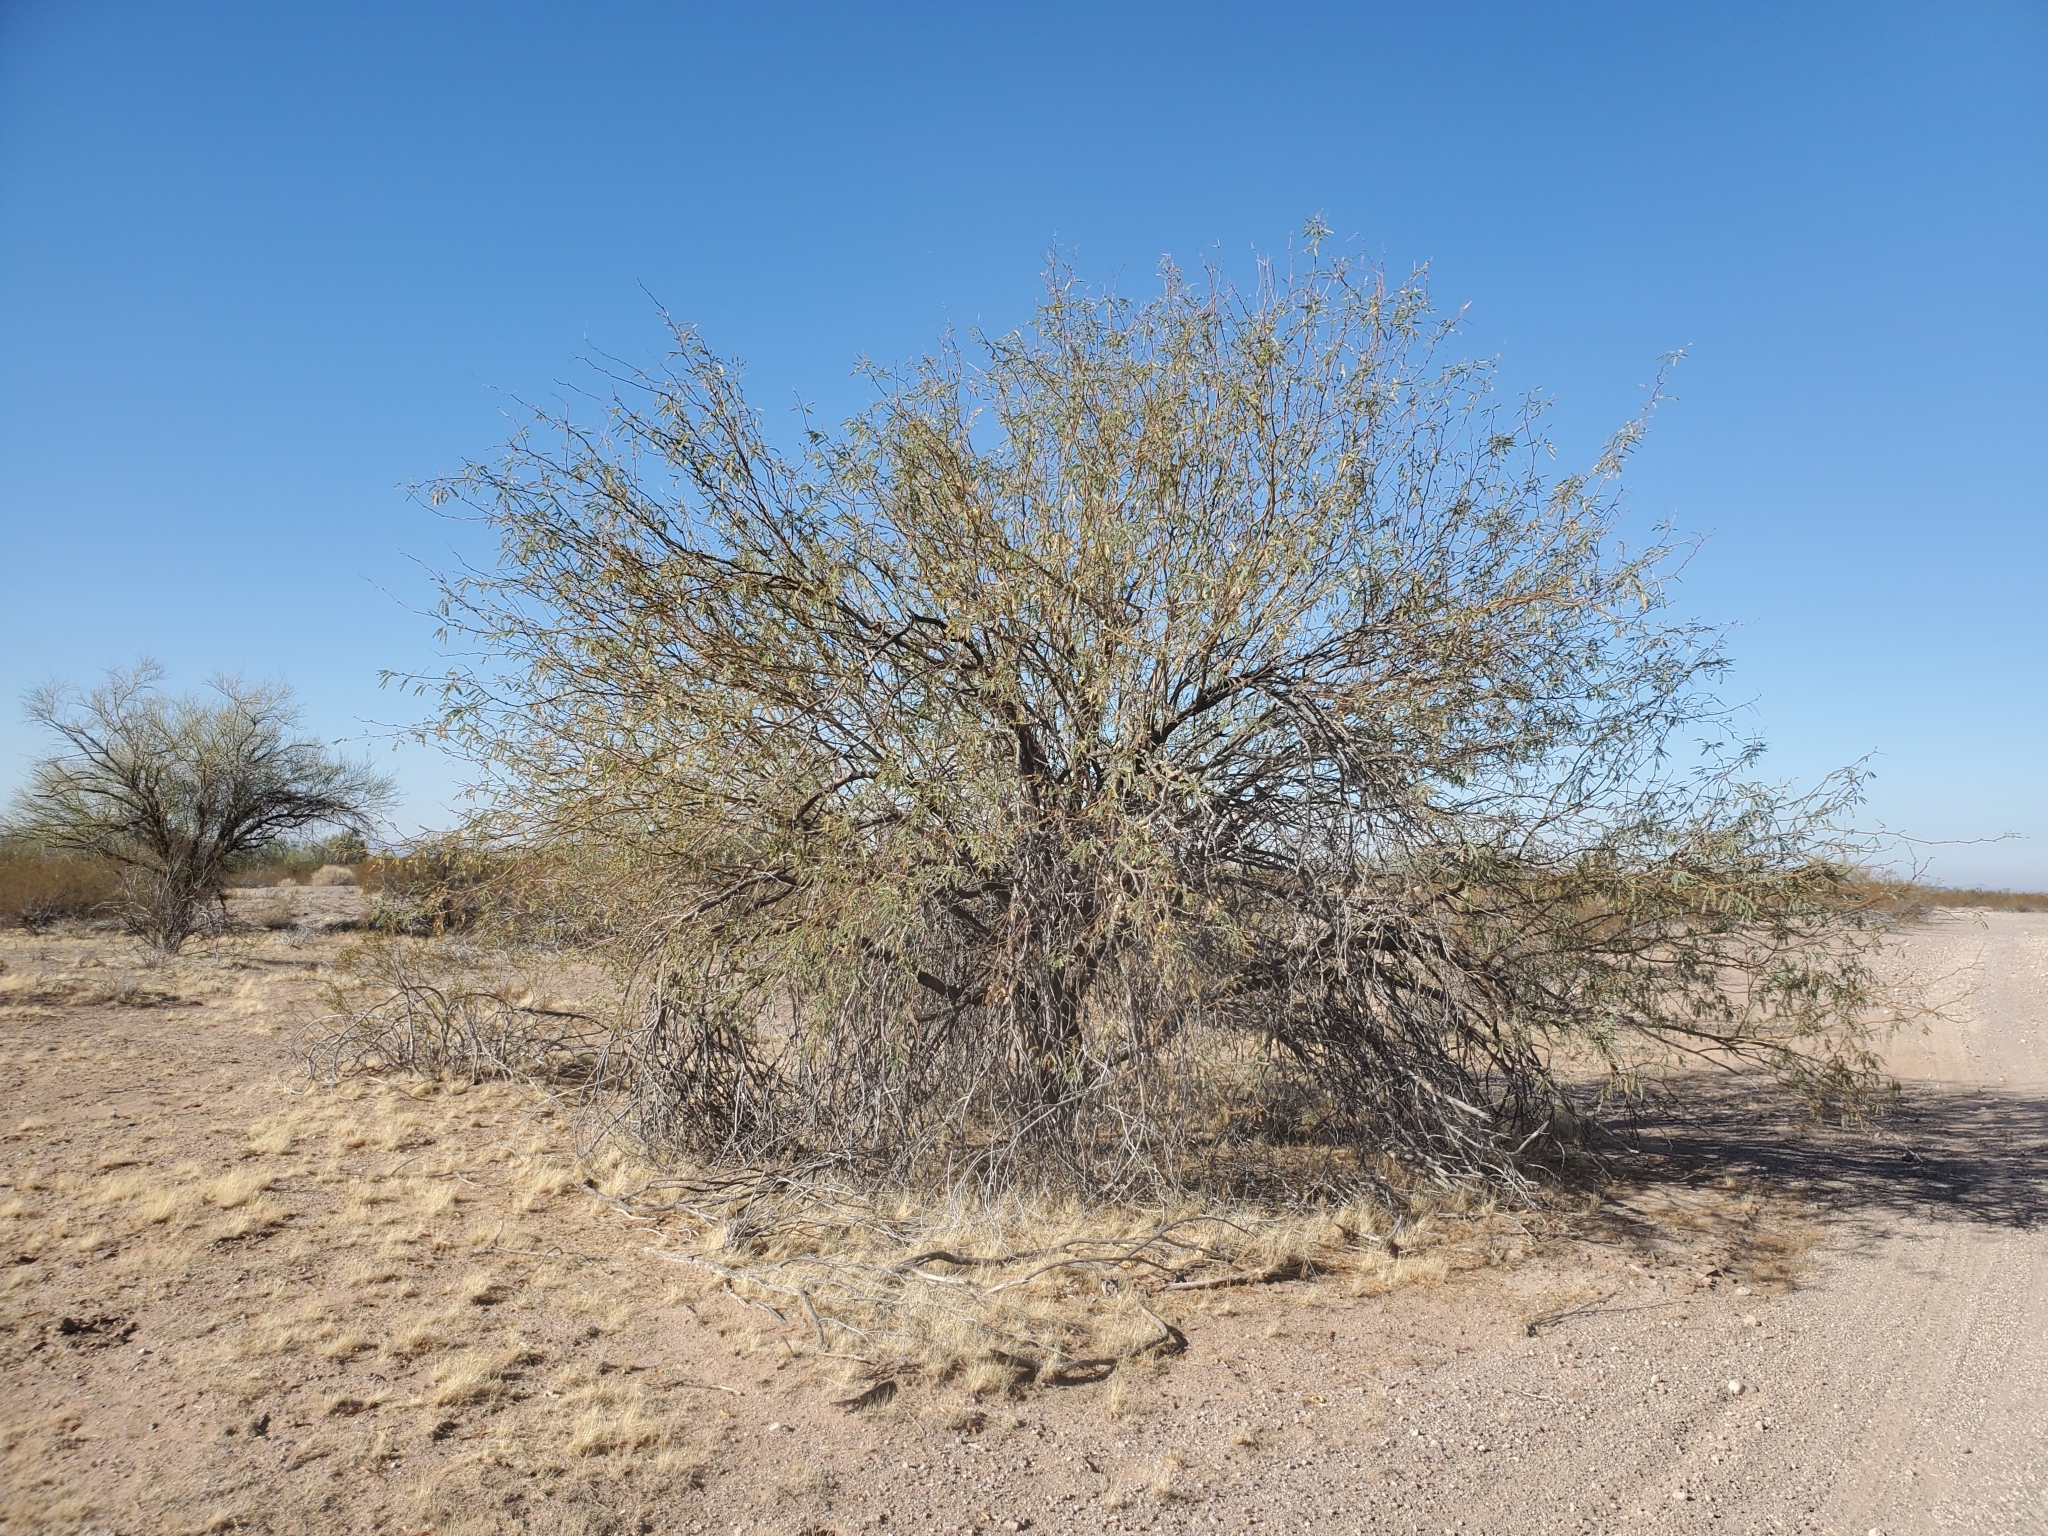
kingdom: Plantae
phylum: Tracheophyta
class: Magnoliopsida
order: Fabales
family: Fabaceae
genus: Prosopis
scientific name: Prosopis velutina
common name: Velvet mesquite
